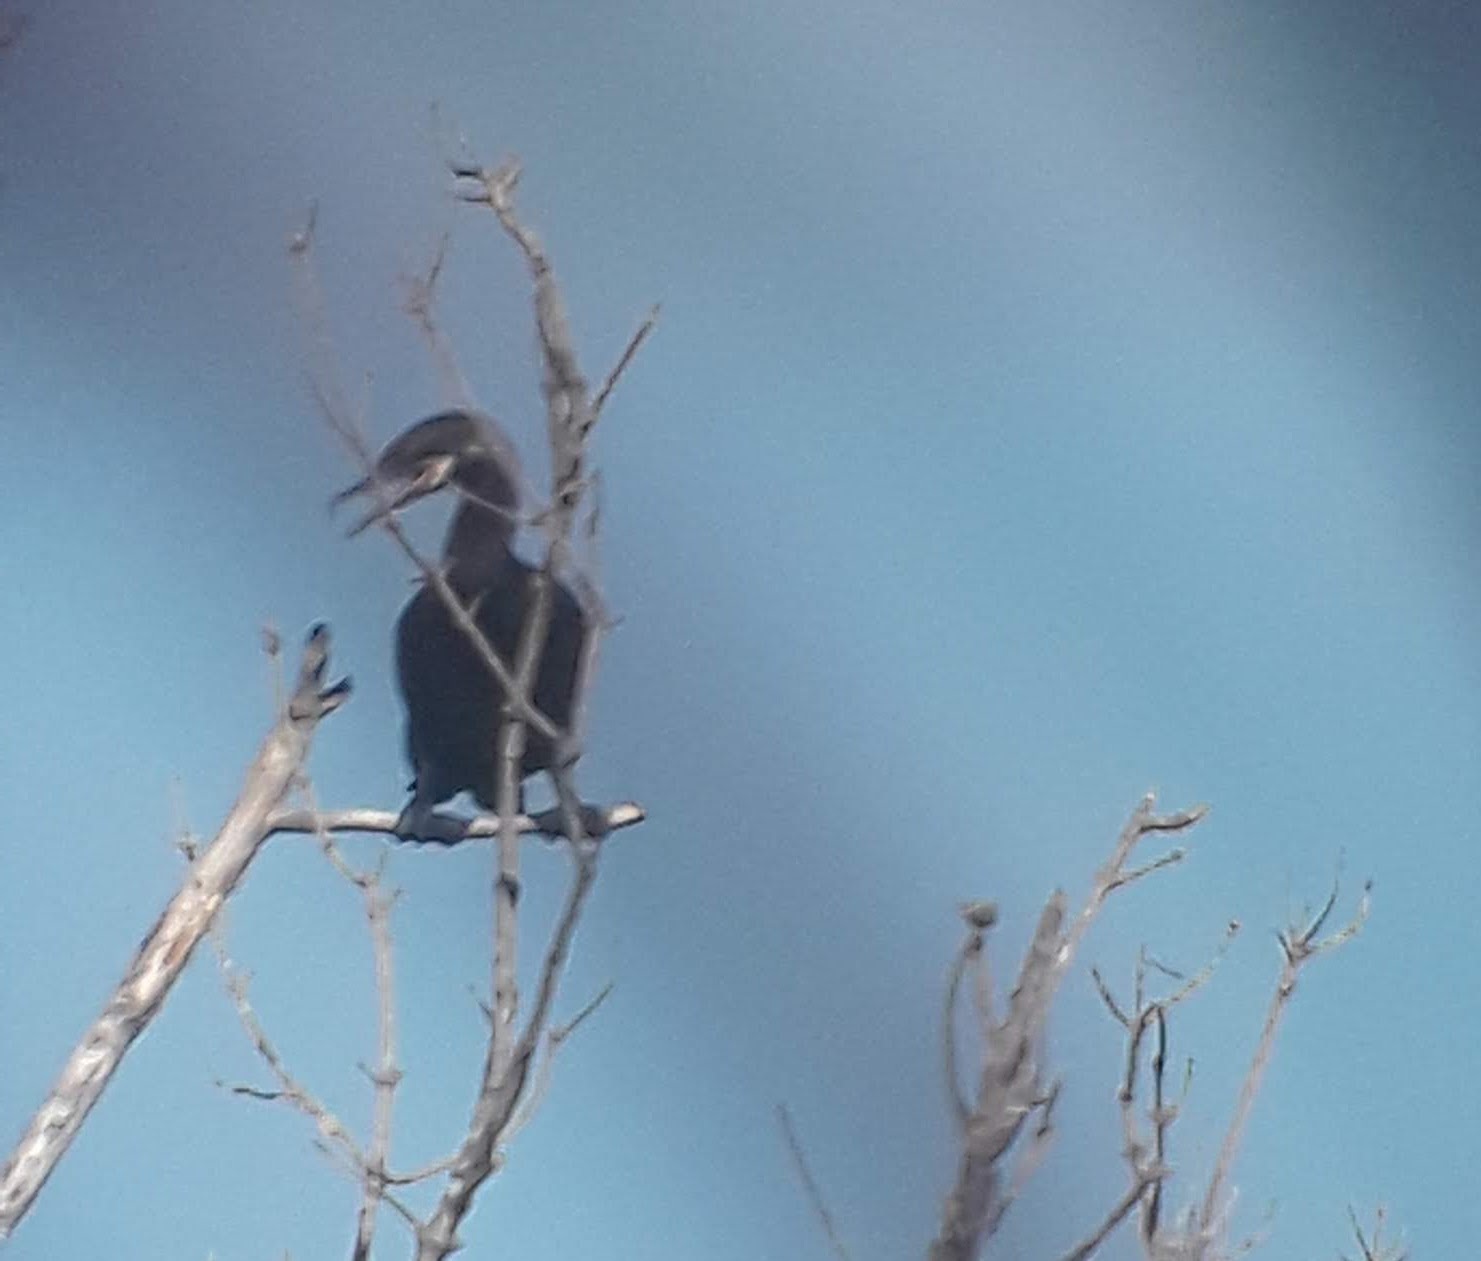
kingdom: Animalia
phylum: Chordata
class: Aves
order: Suliformes
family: Phalacrocoracidae
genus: Phalacrocorax
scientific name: Phalacrocorax brasilianus
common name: Neotropic cormorant
